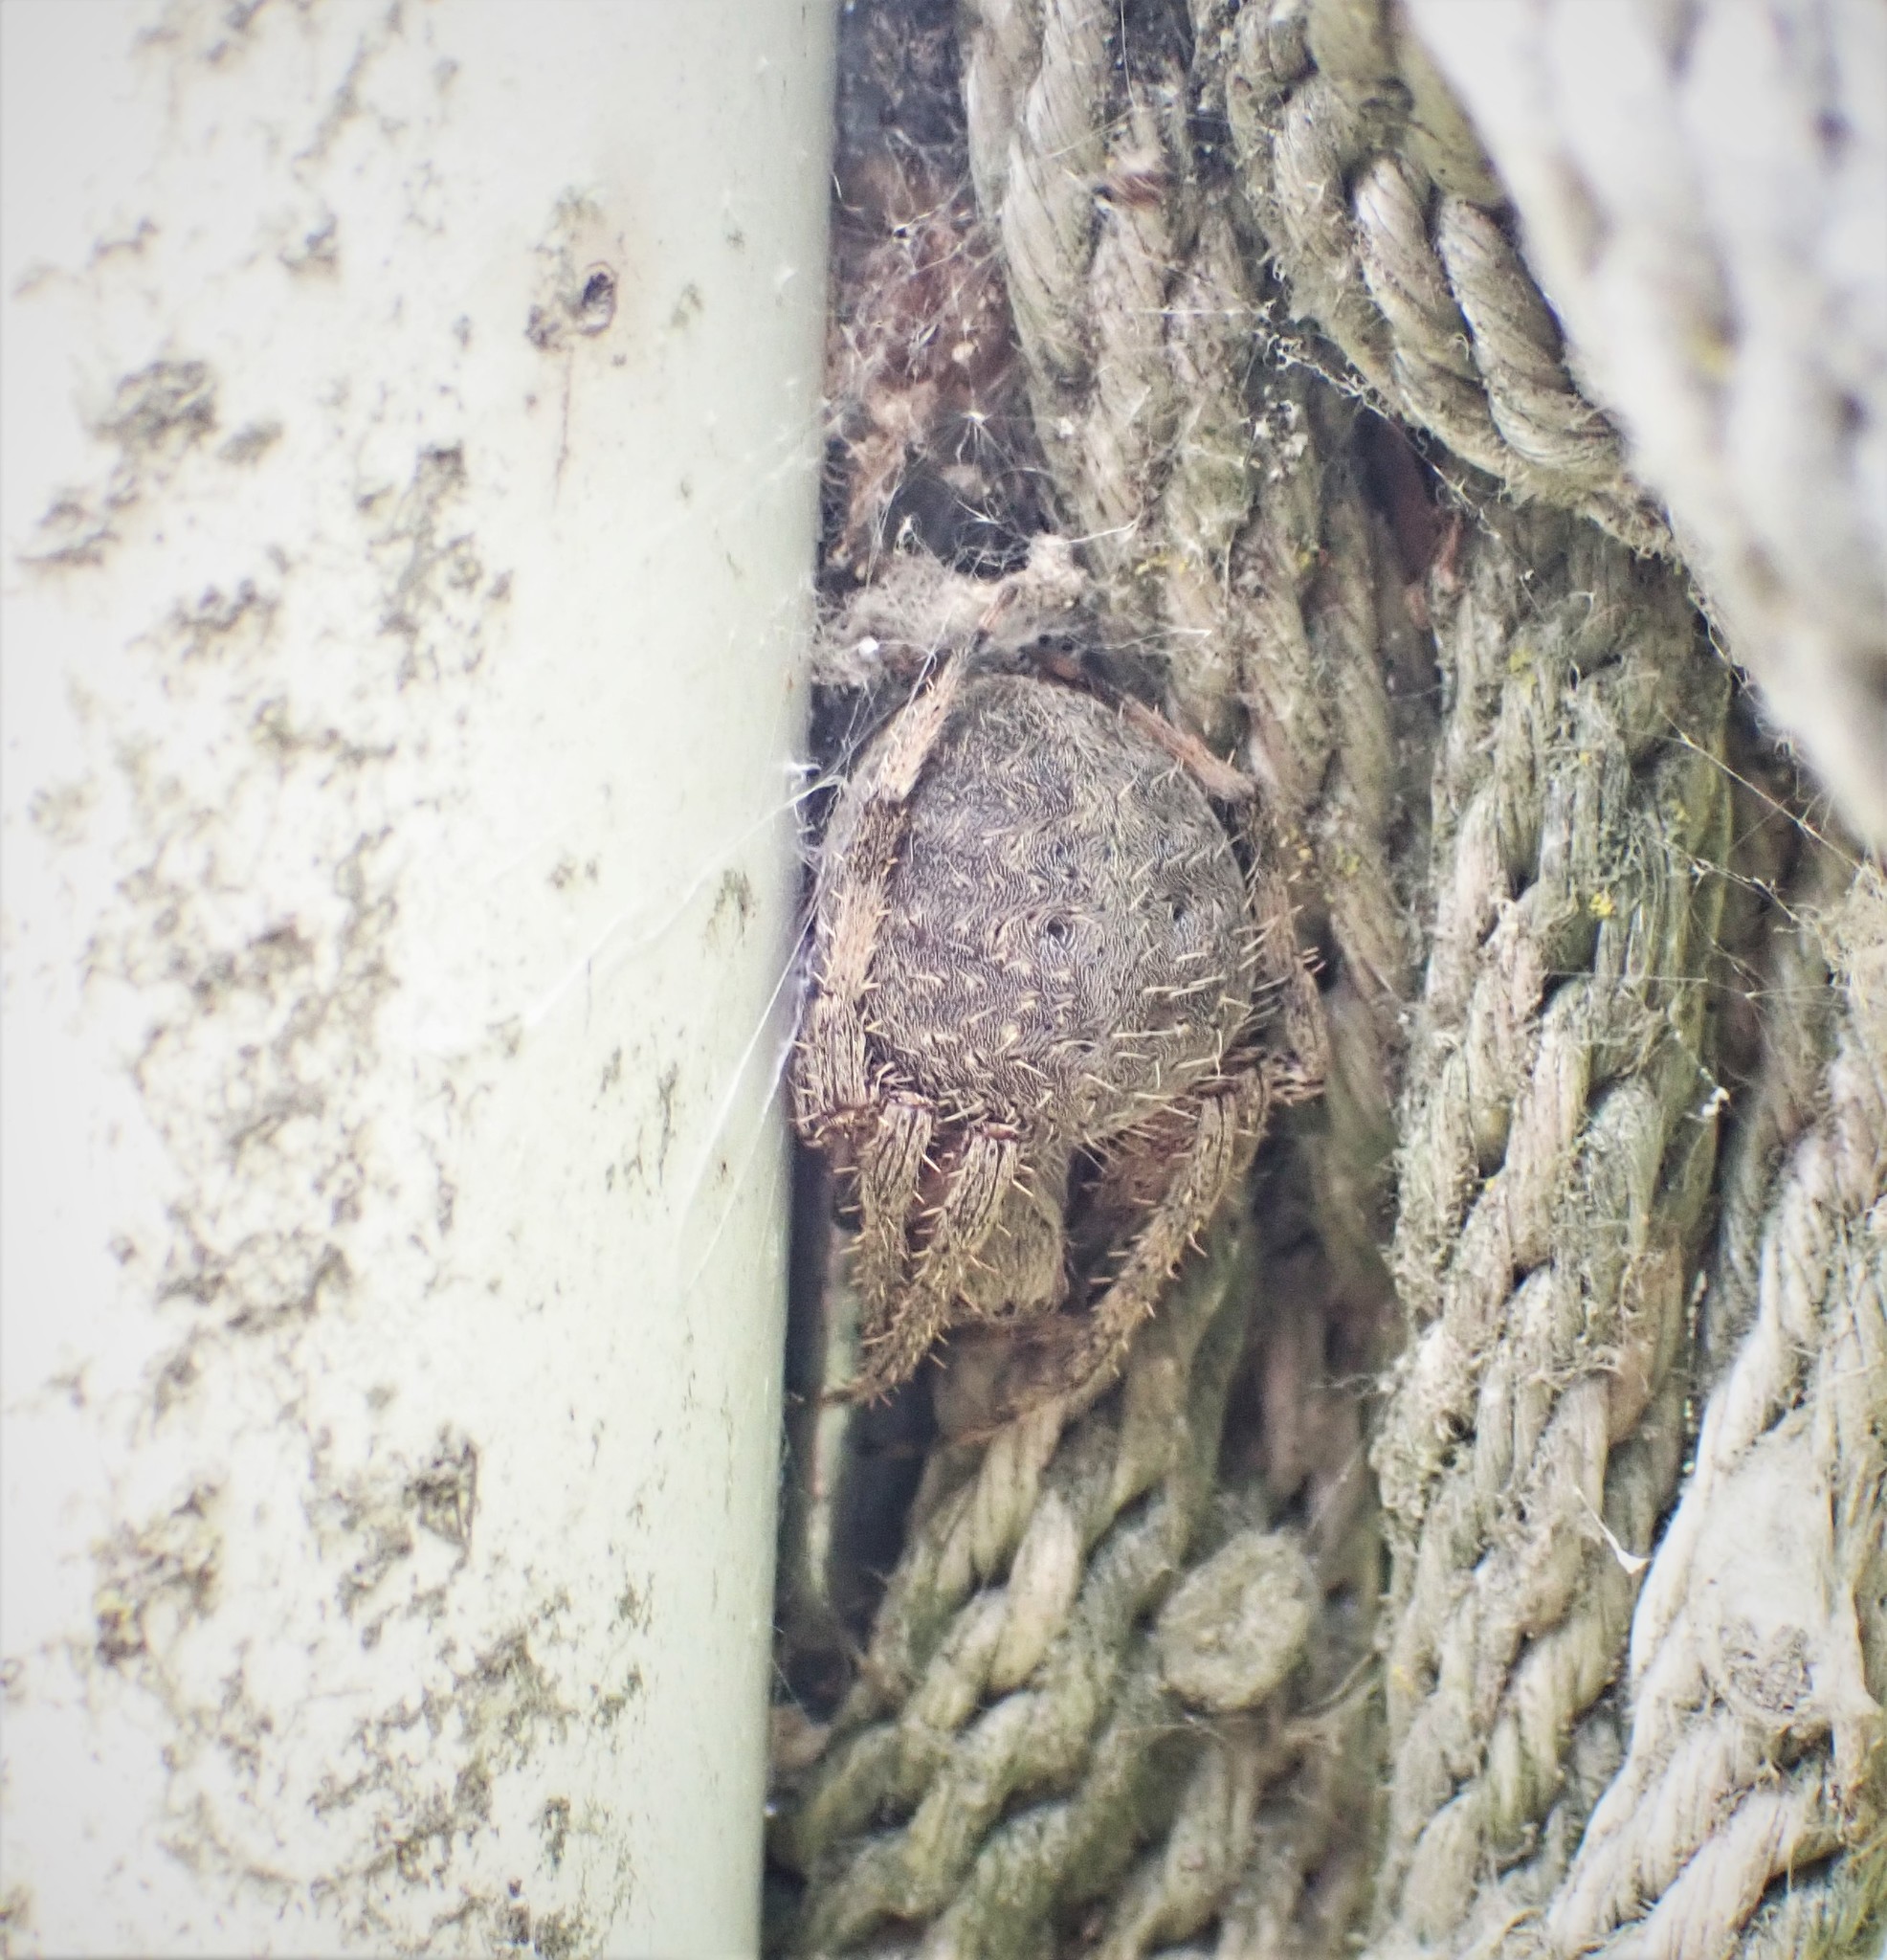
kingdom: Animalia
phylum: Arthropoda
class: Arachnida
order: Araneae
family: Araneidae
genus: Neoscona
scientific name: Neoscona crucifera
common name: Spotted orbweaver
